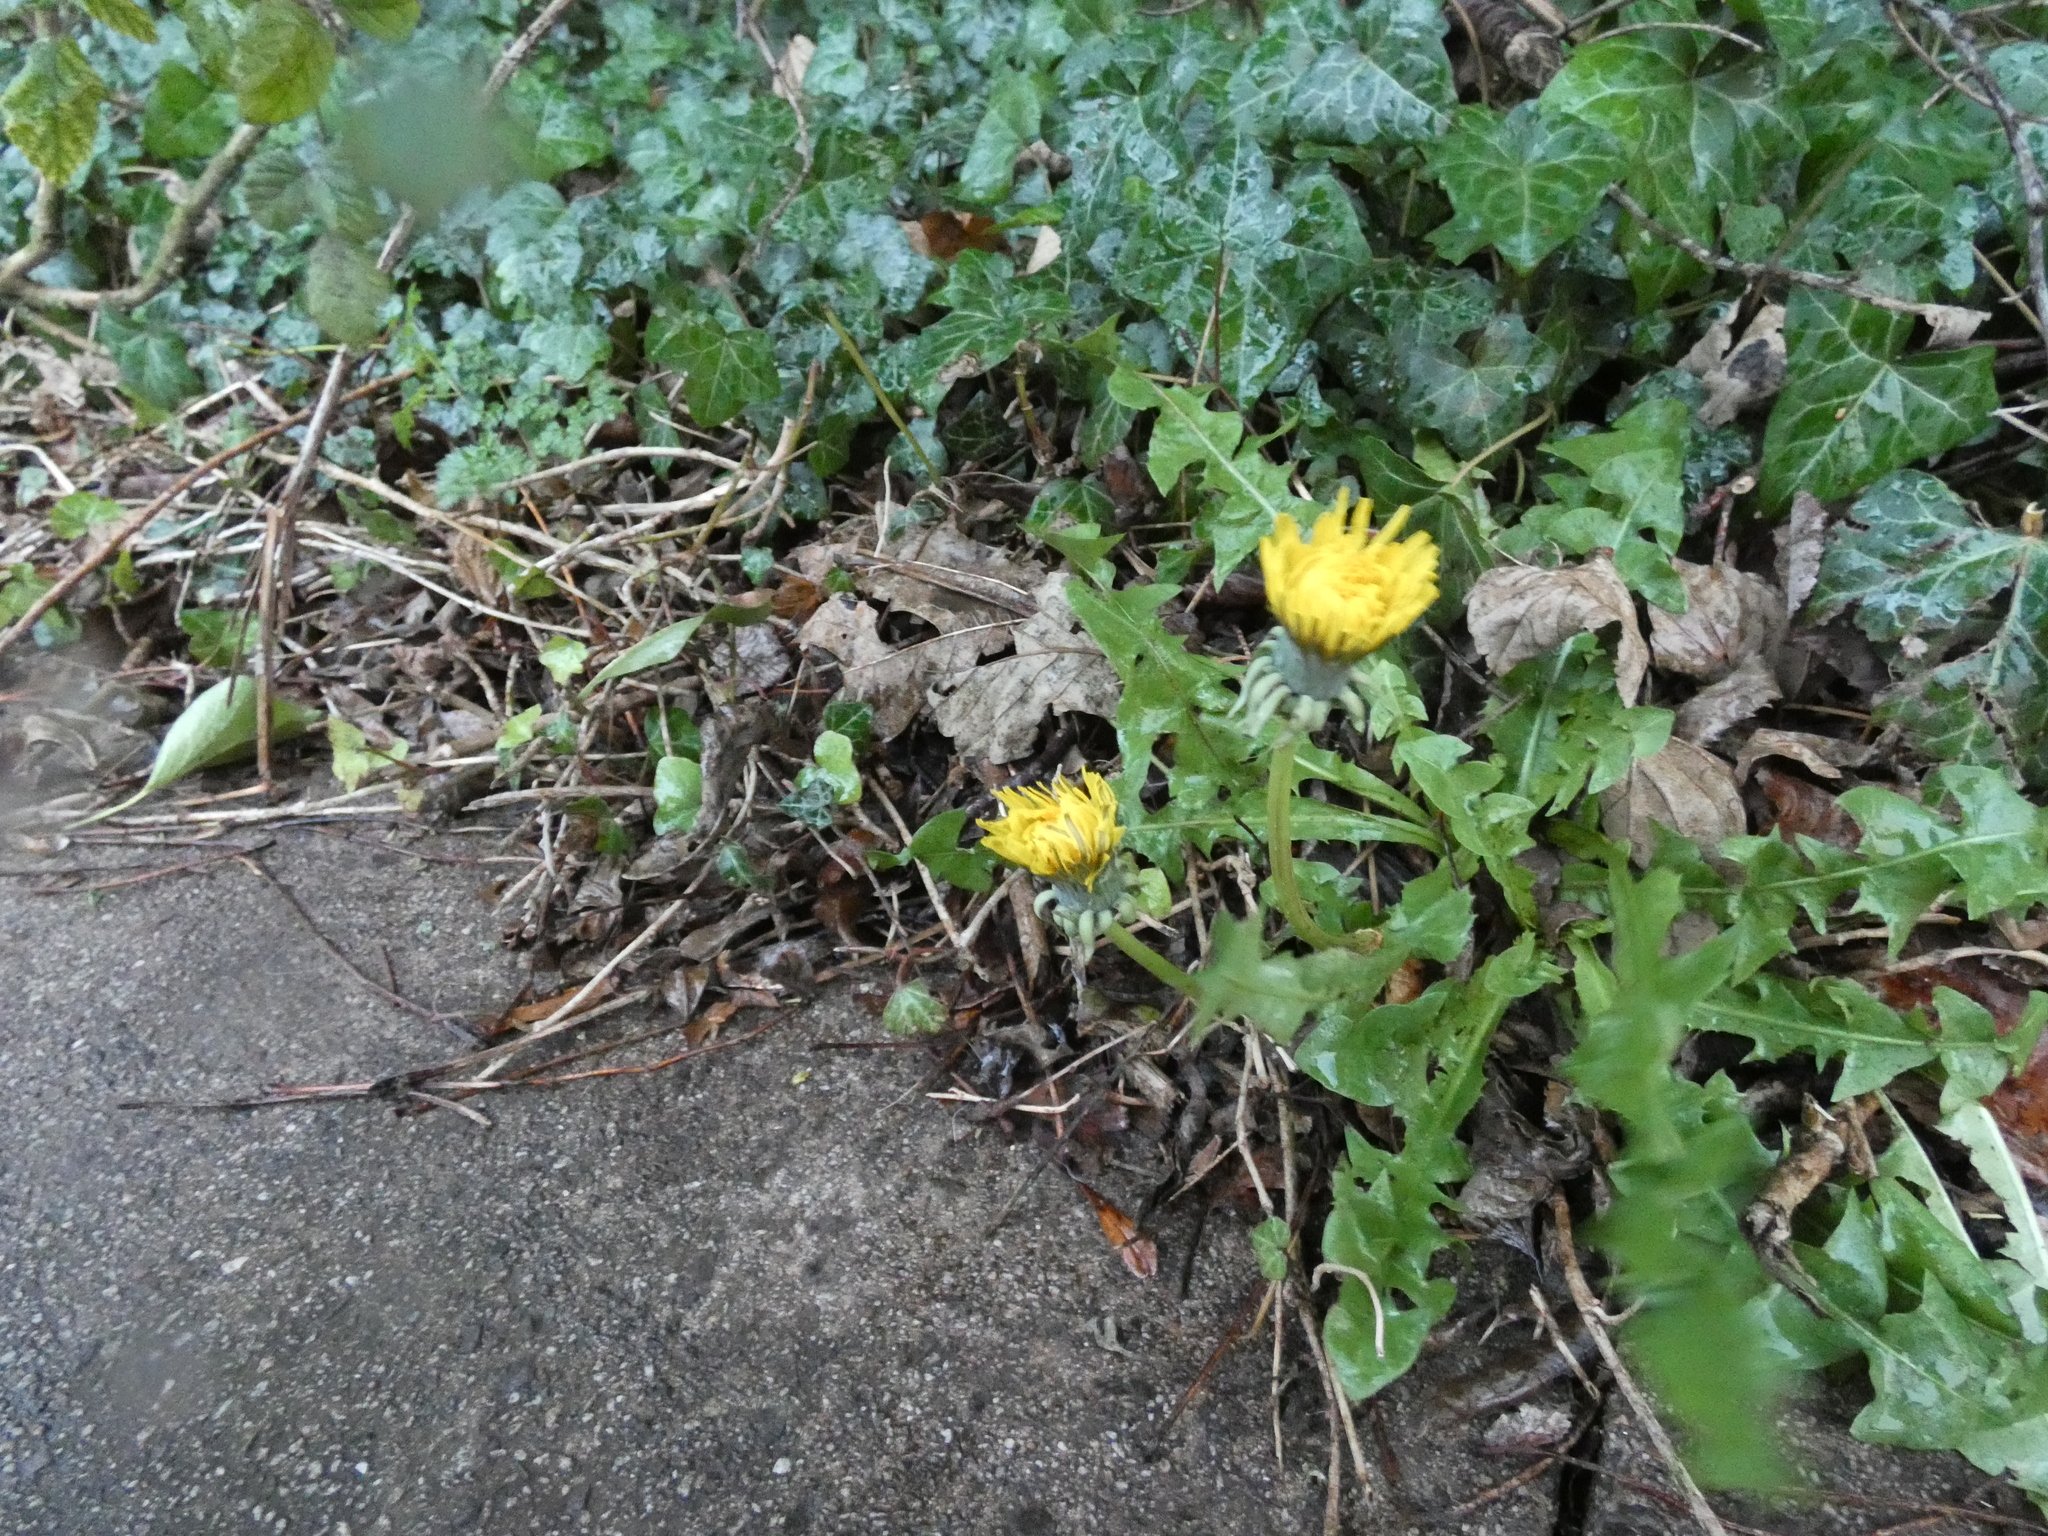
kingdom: Plantae
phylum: Tracheophyta
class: Magnoliopsida
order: Asterales
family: Asteraceae
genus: Taraxacum
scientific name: Taraxacum officinale
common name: Common dandelion
